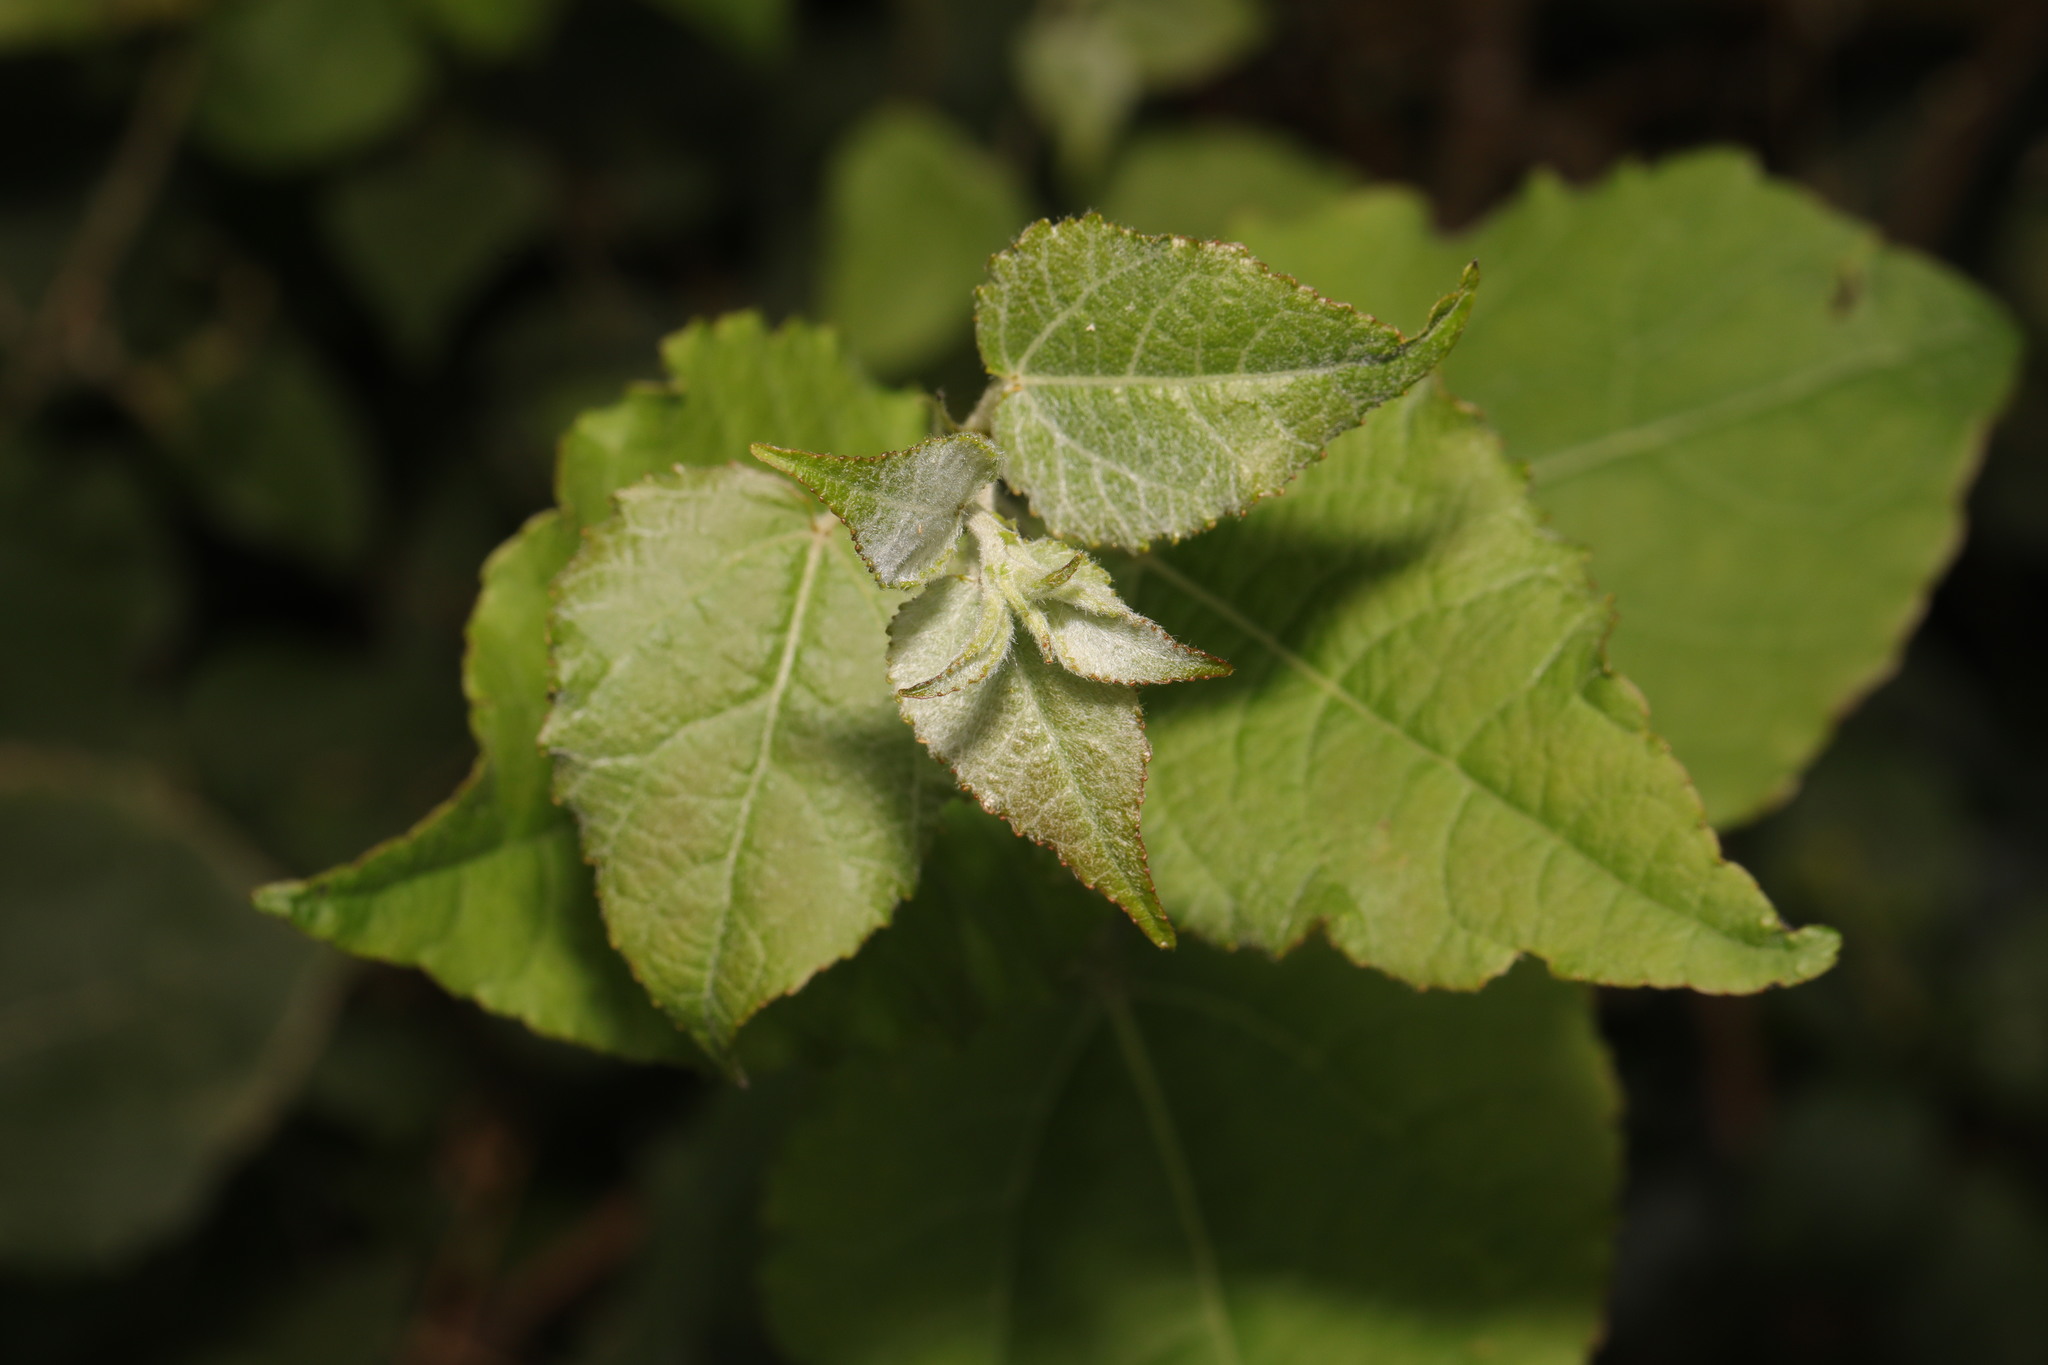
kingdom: Plantae
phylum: Tracheophyta
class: Magnoliopsida
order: Malpighiales
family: Salicaceae
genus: Populus
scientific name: Populus alba
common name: White poplar
